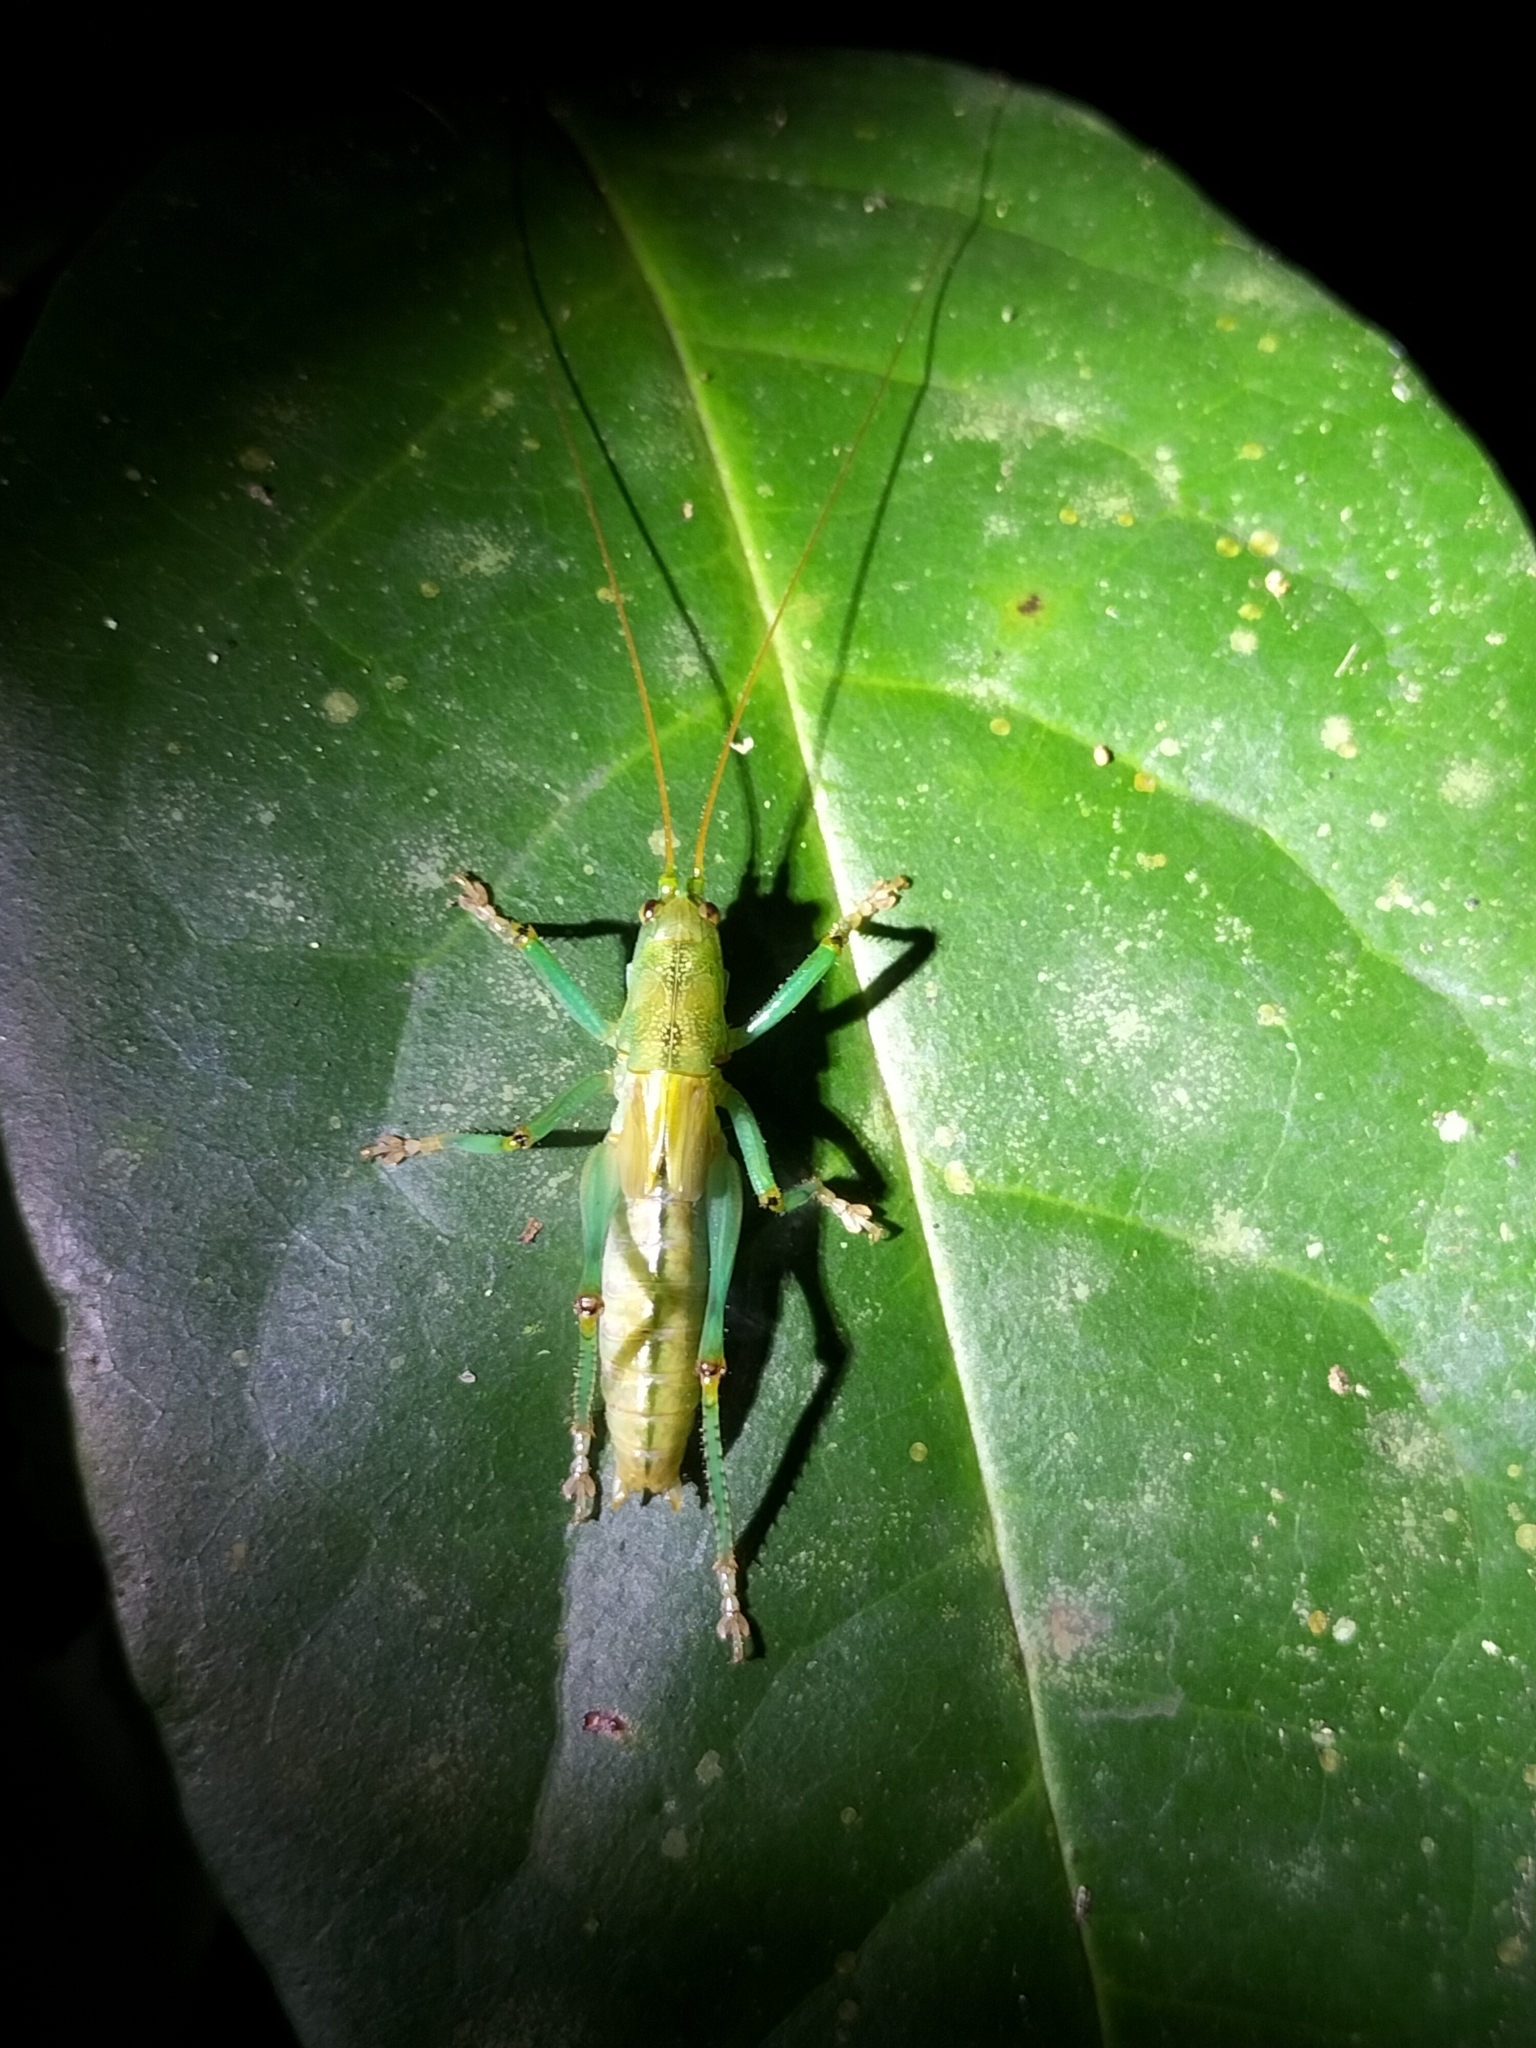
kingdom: Animalia
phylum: Arthropoda
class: Insecta
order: Orthoptera
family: Tettigoniidae
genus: Barbaragraecia
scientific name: Barbaragraecia unicorn
